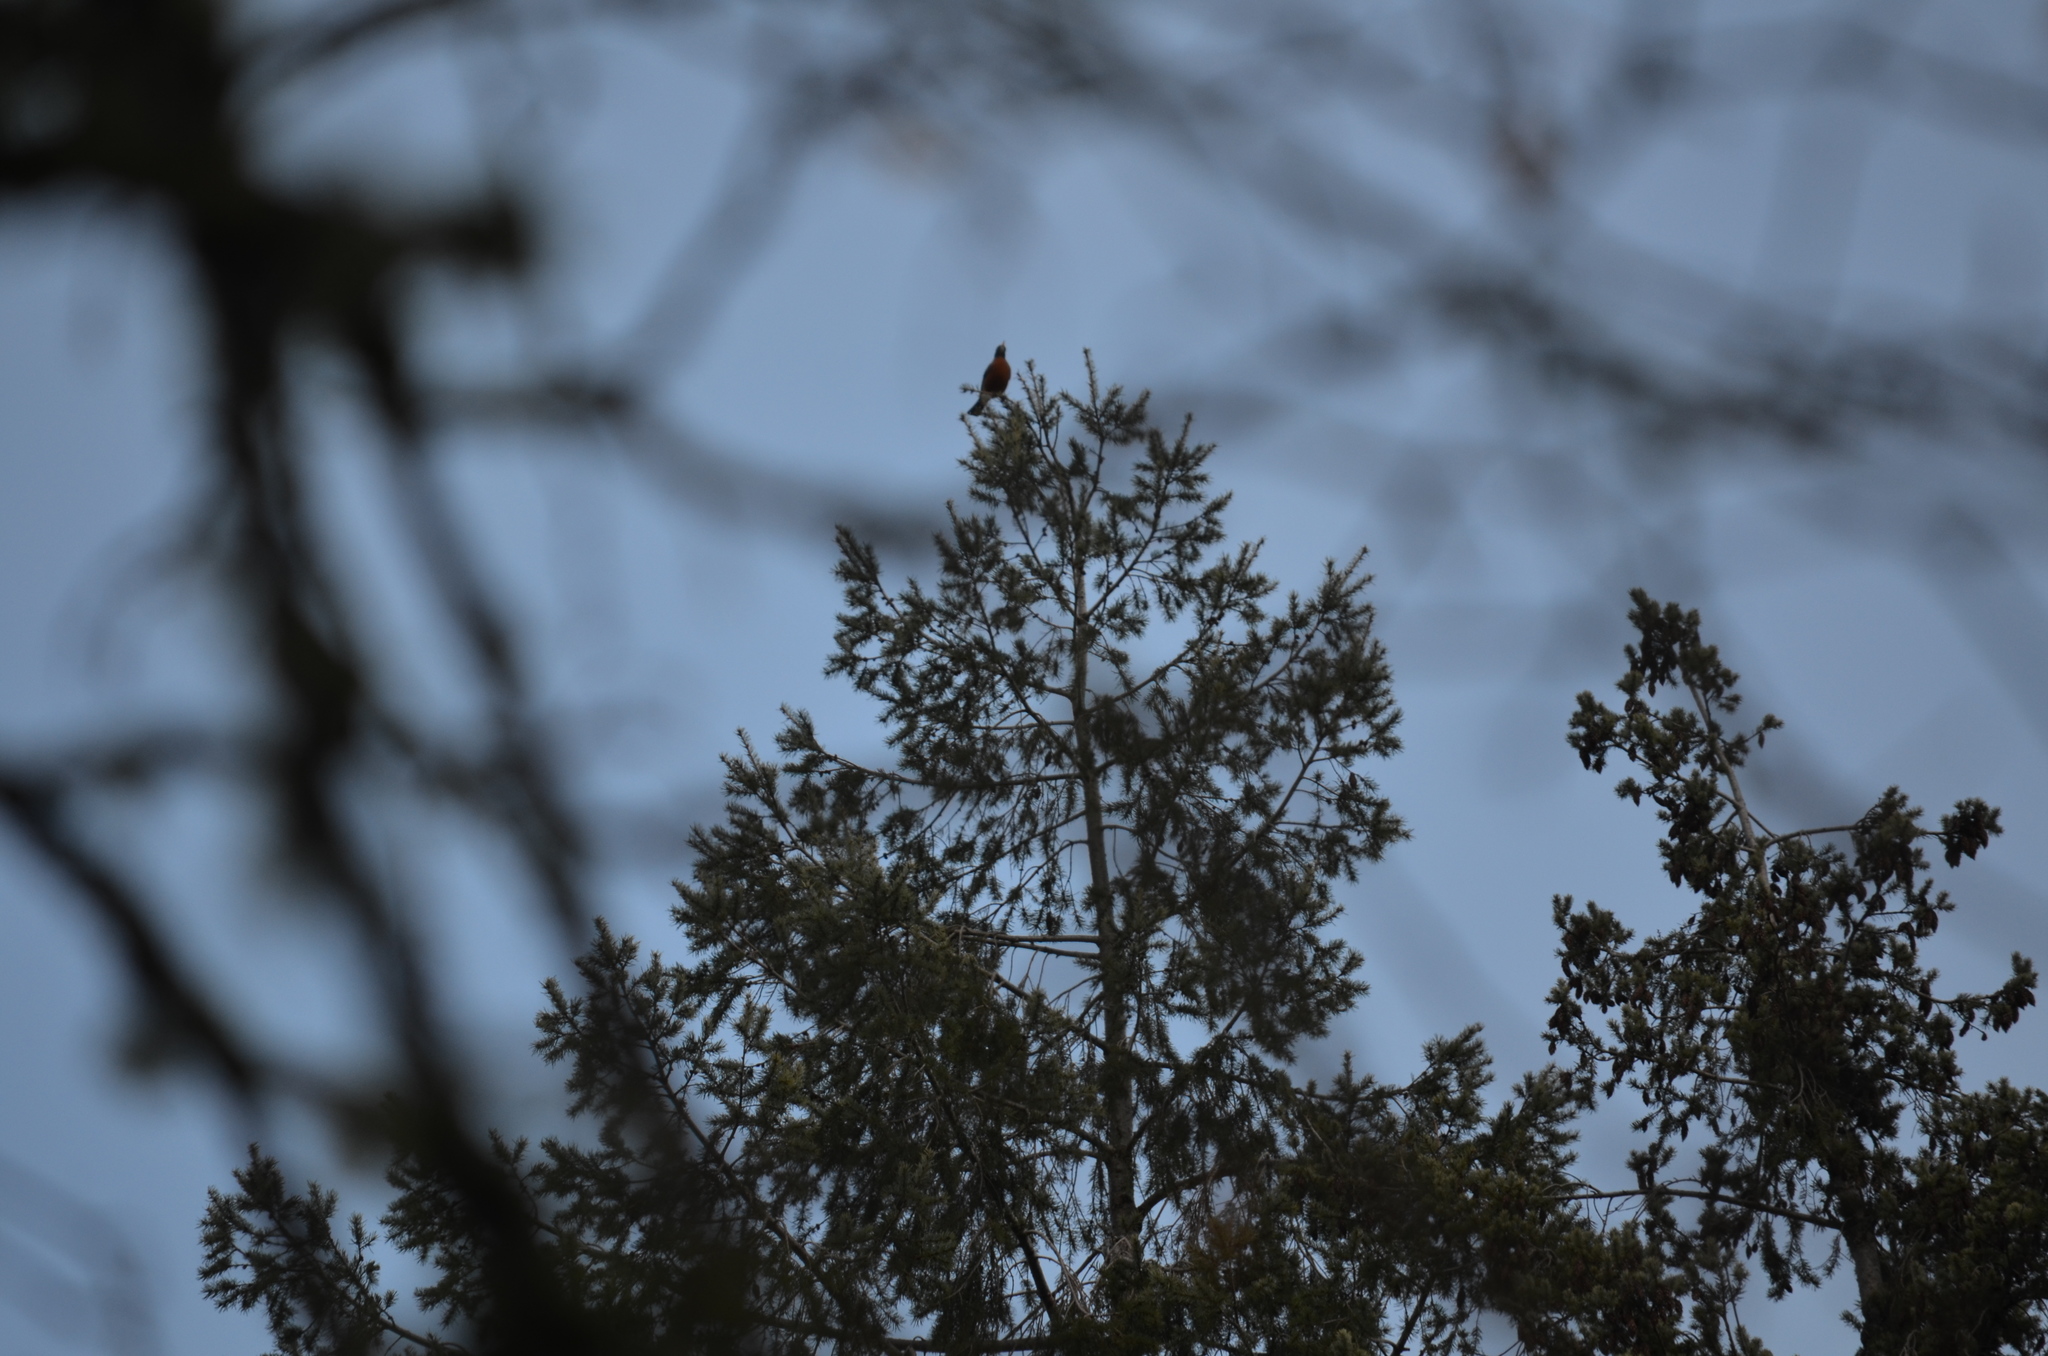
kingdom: Animalia
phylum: Chordata
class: Aves
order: Passeriformes
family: Turdidae
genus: Turdus
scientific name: Turdus migratorius
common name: American robin
